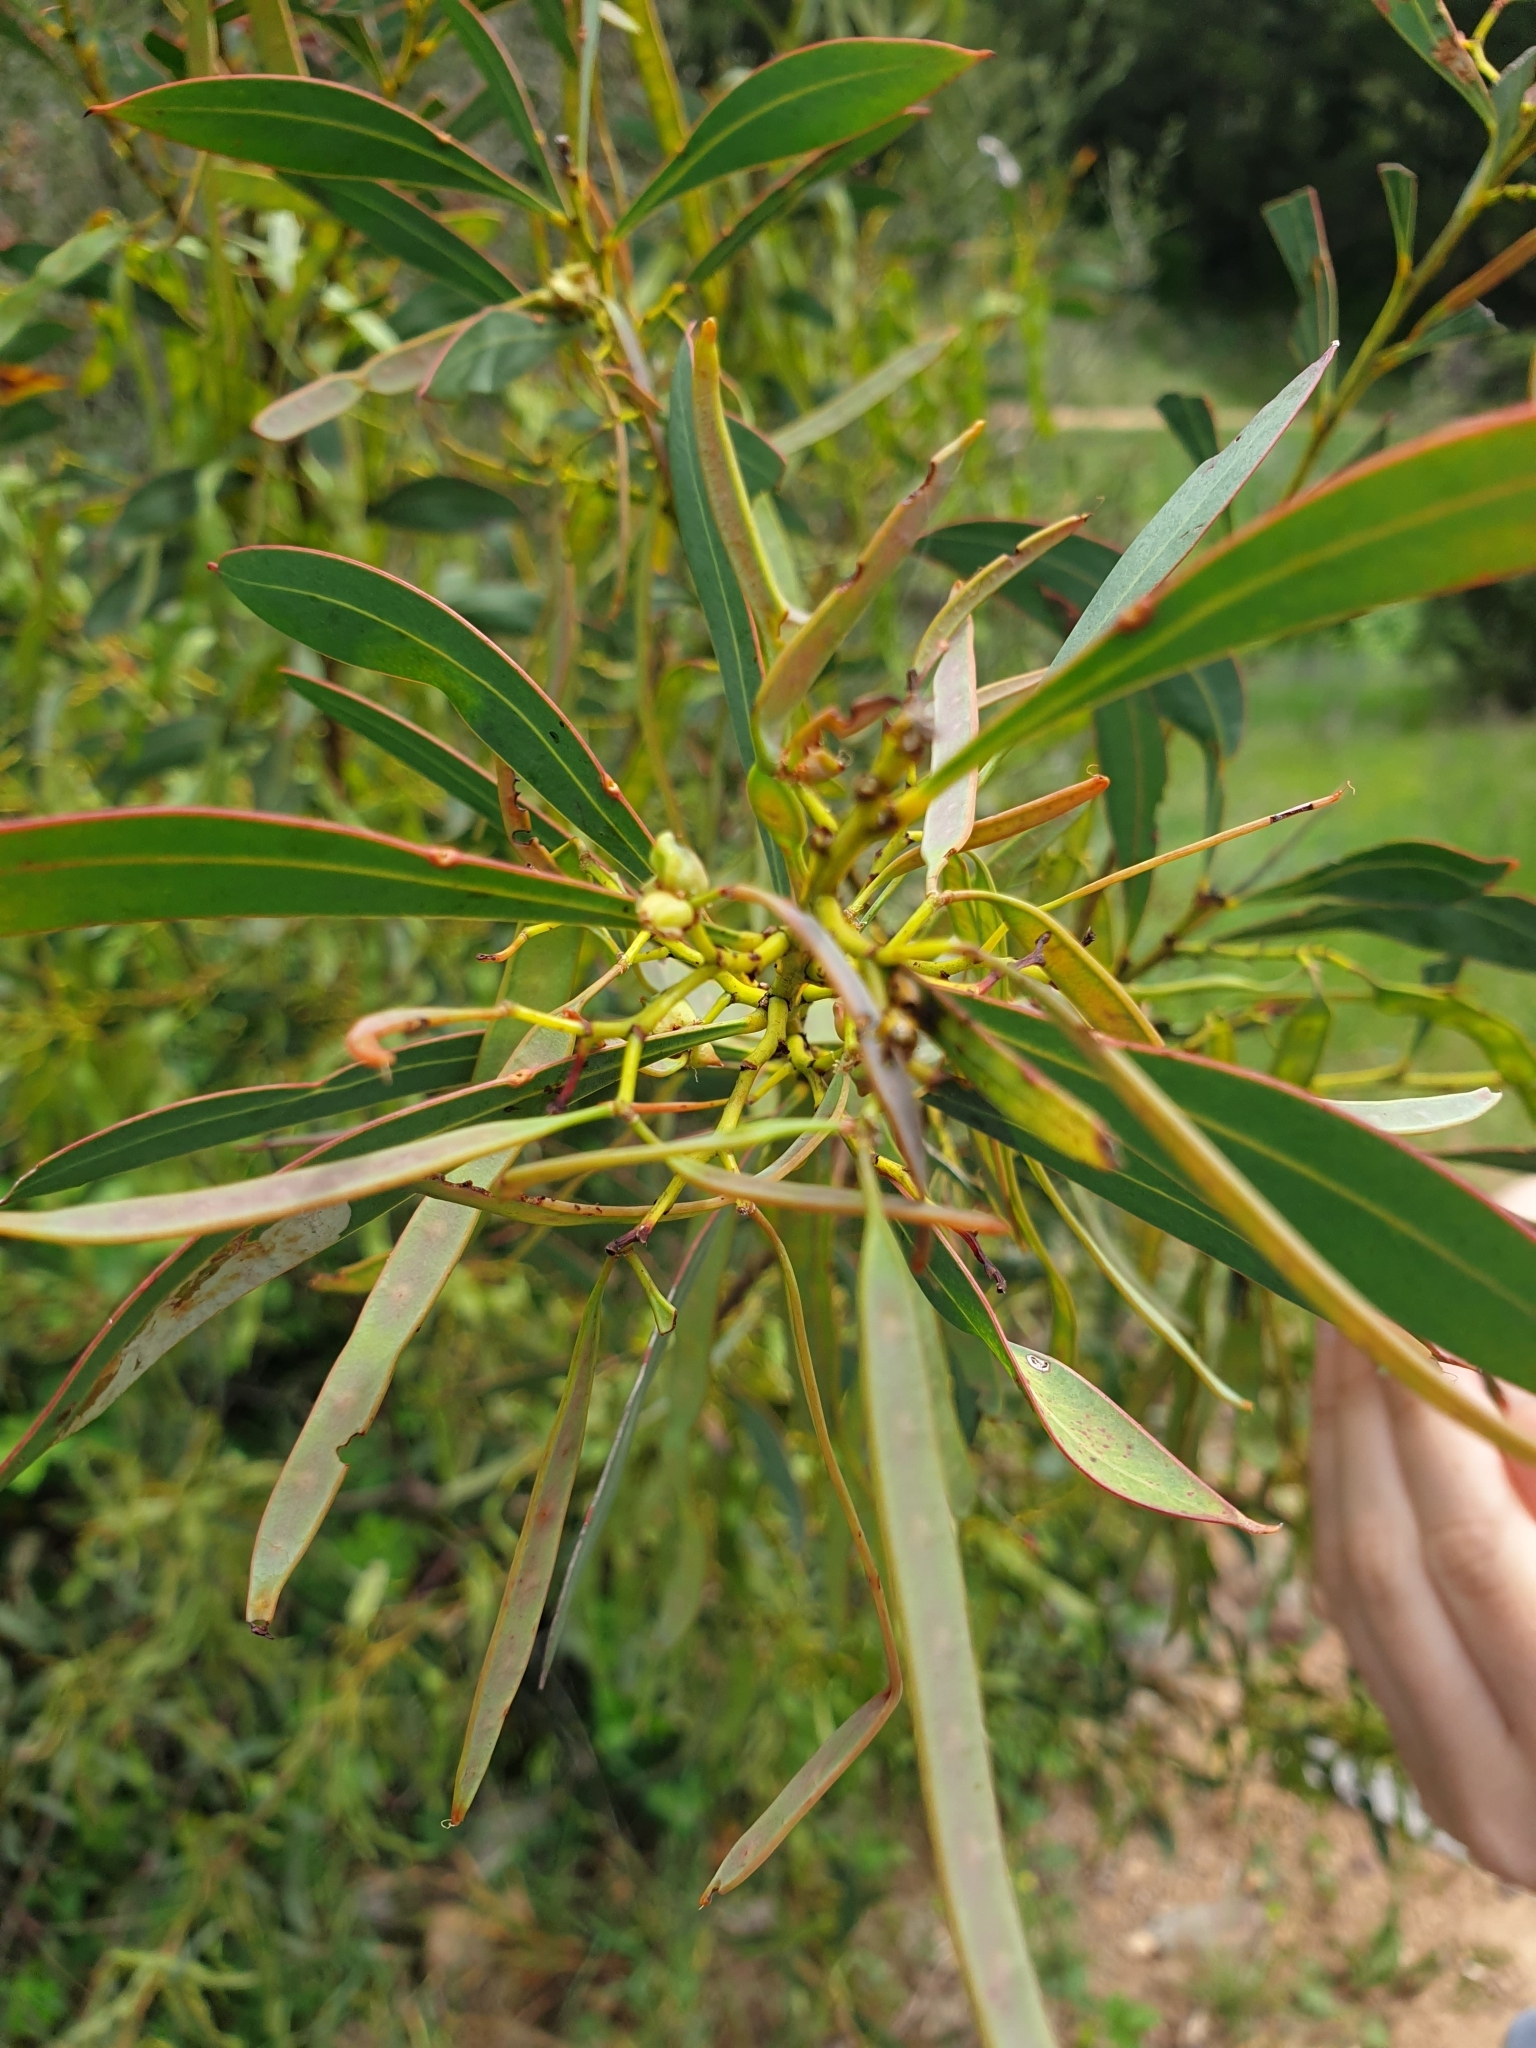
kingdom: Plantae
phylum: Tracheophyta
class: Magnoliopsida
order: Fabales
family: Fabaceae
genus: Acacia
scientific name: Acacia rubida
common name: Red leaf wattle
